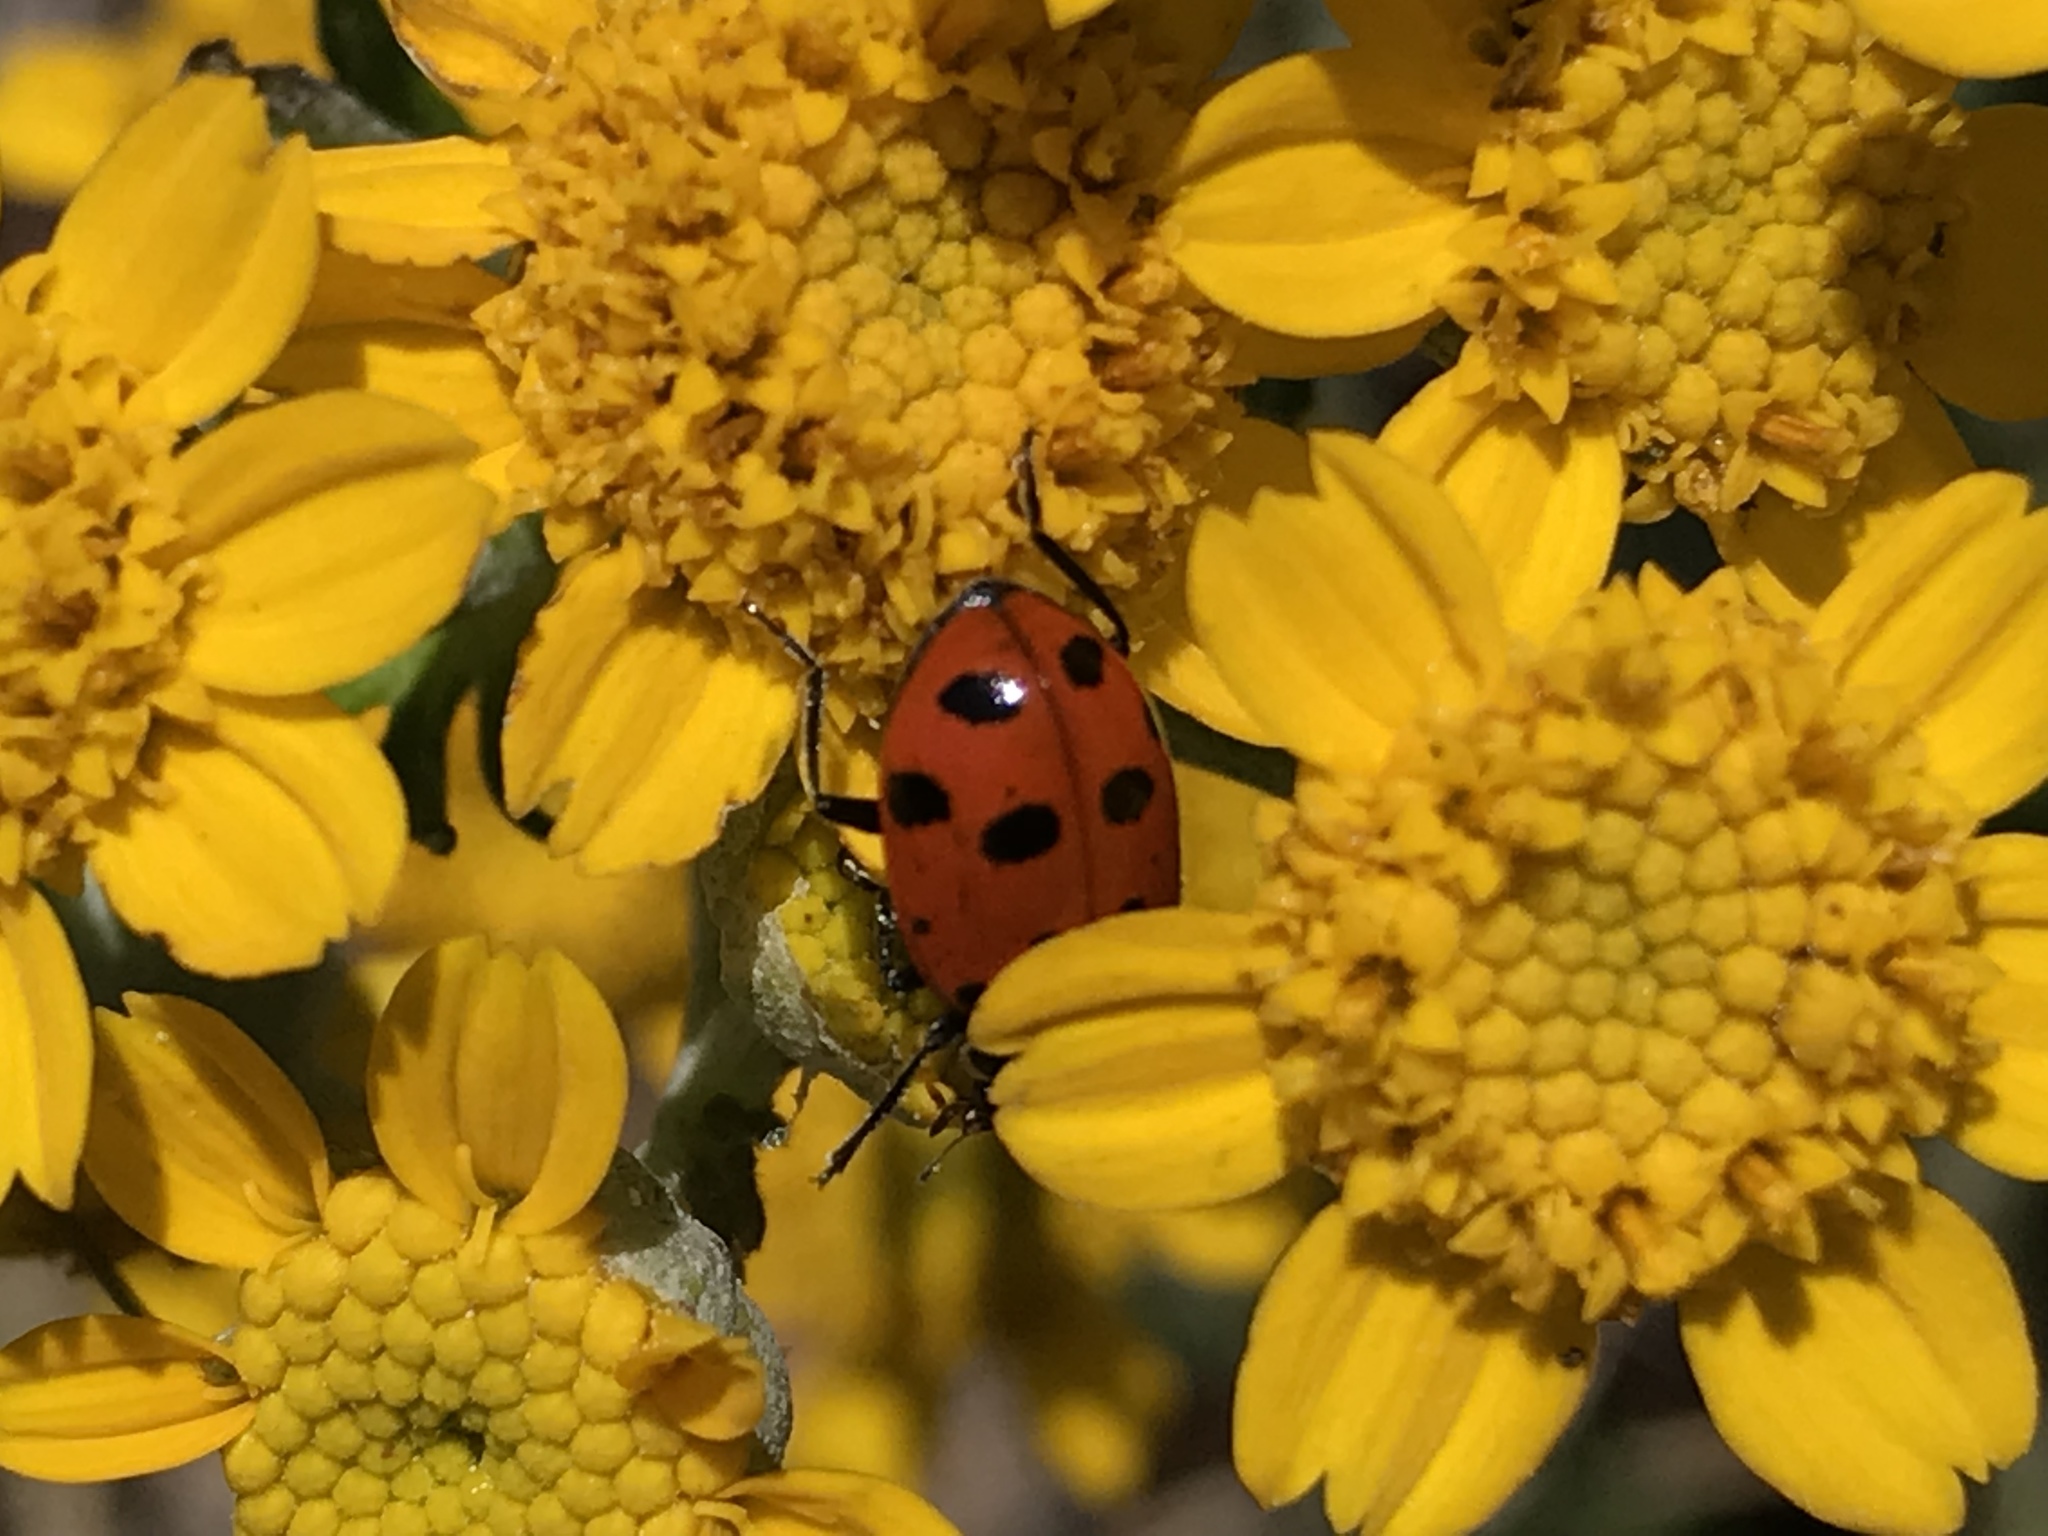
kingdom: Animalia
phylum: Arthropoda
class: Insecta
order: Coleoptera
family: Coccinellidae
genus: Hippodamia
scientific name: Hippodamia convergens
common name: Convergent lady beetle
